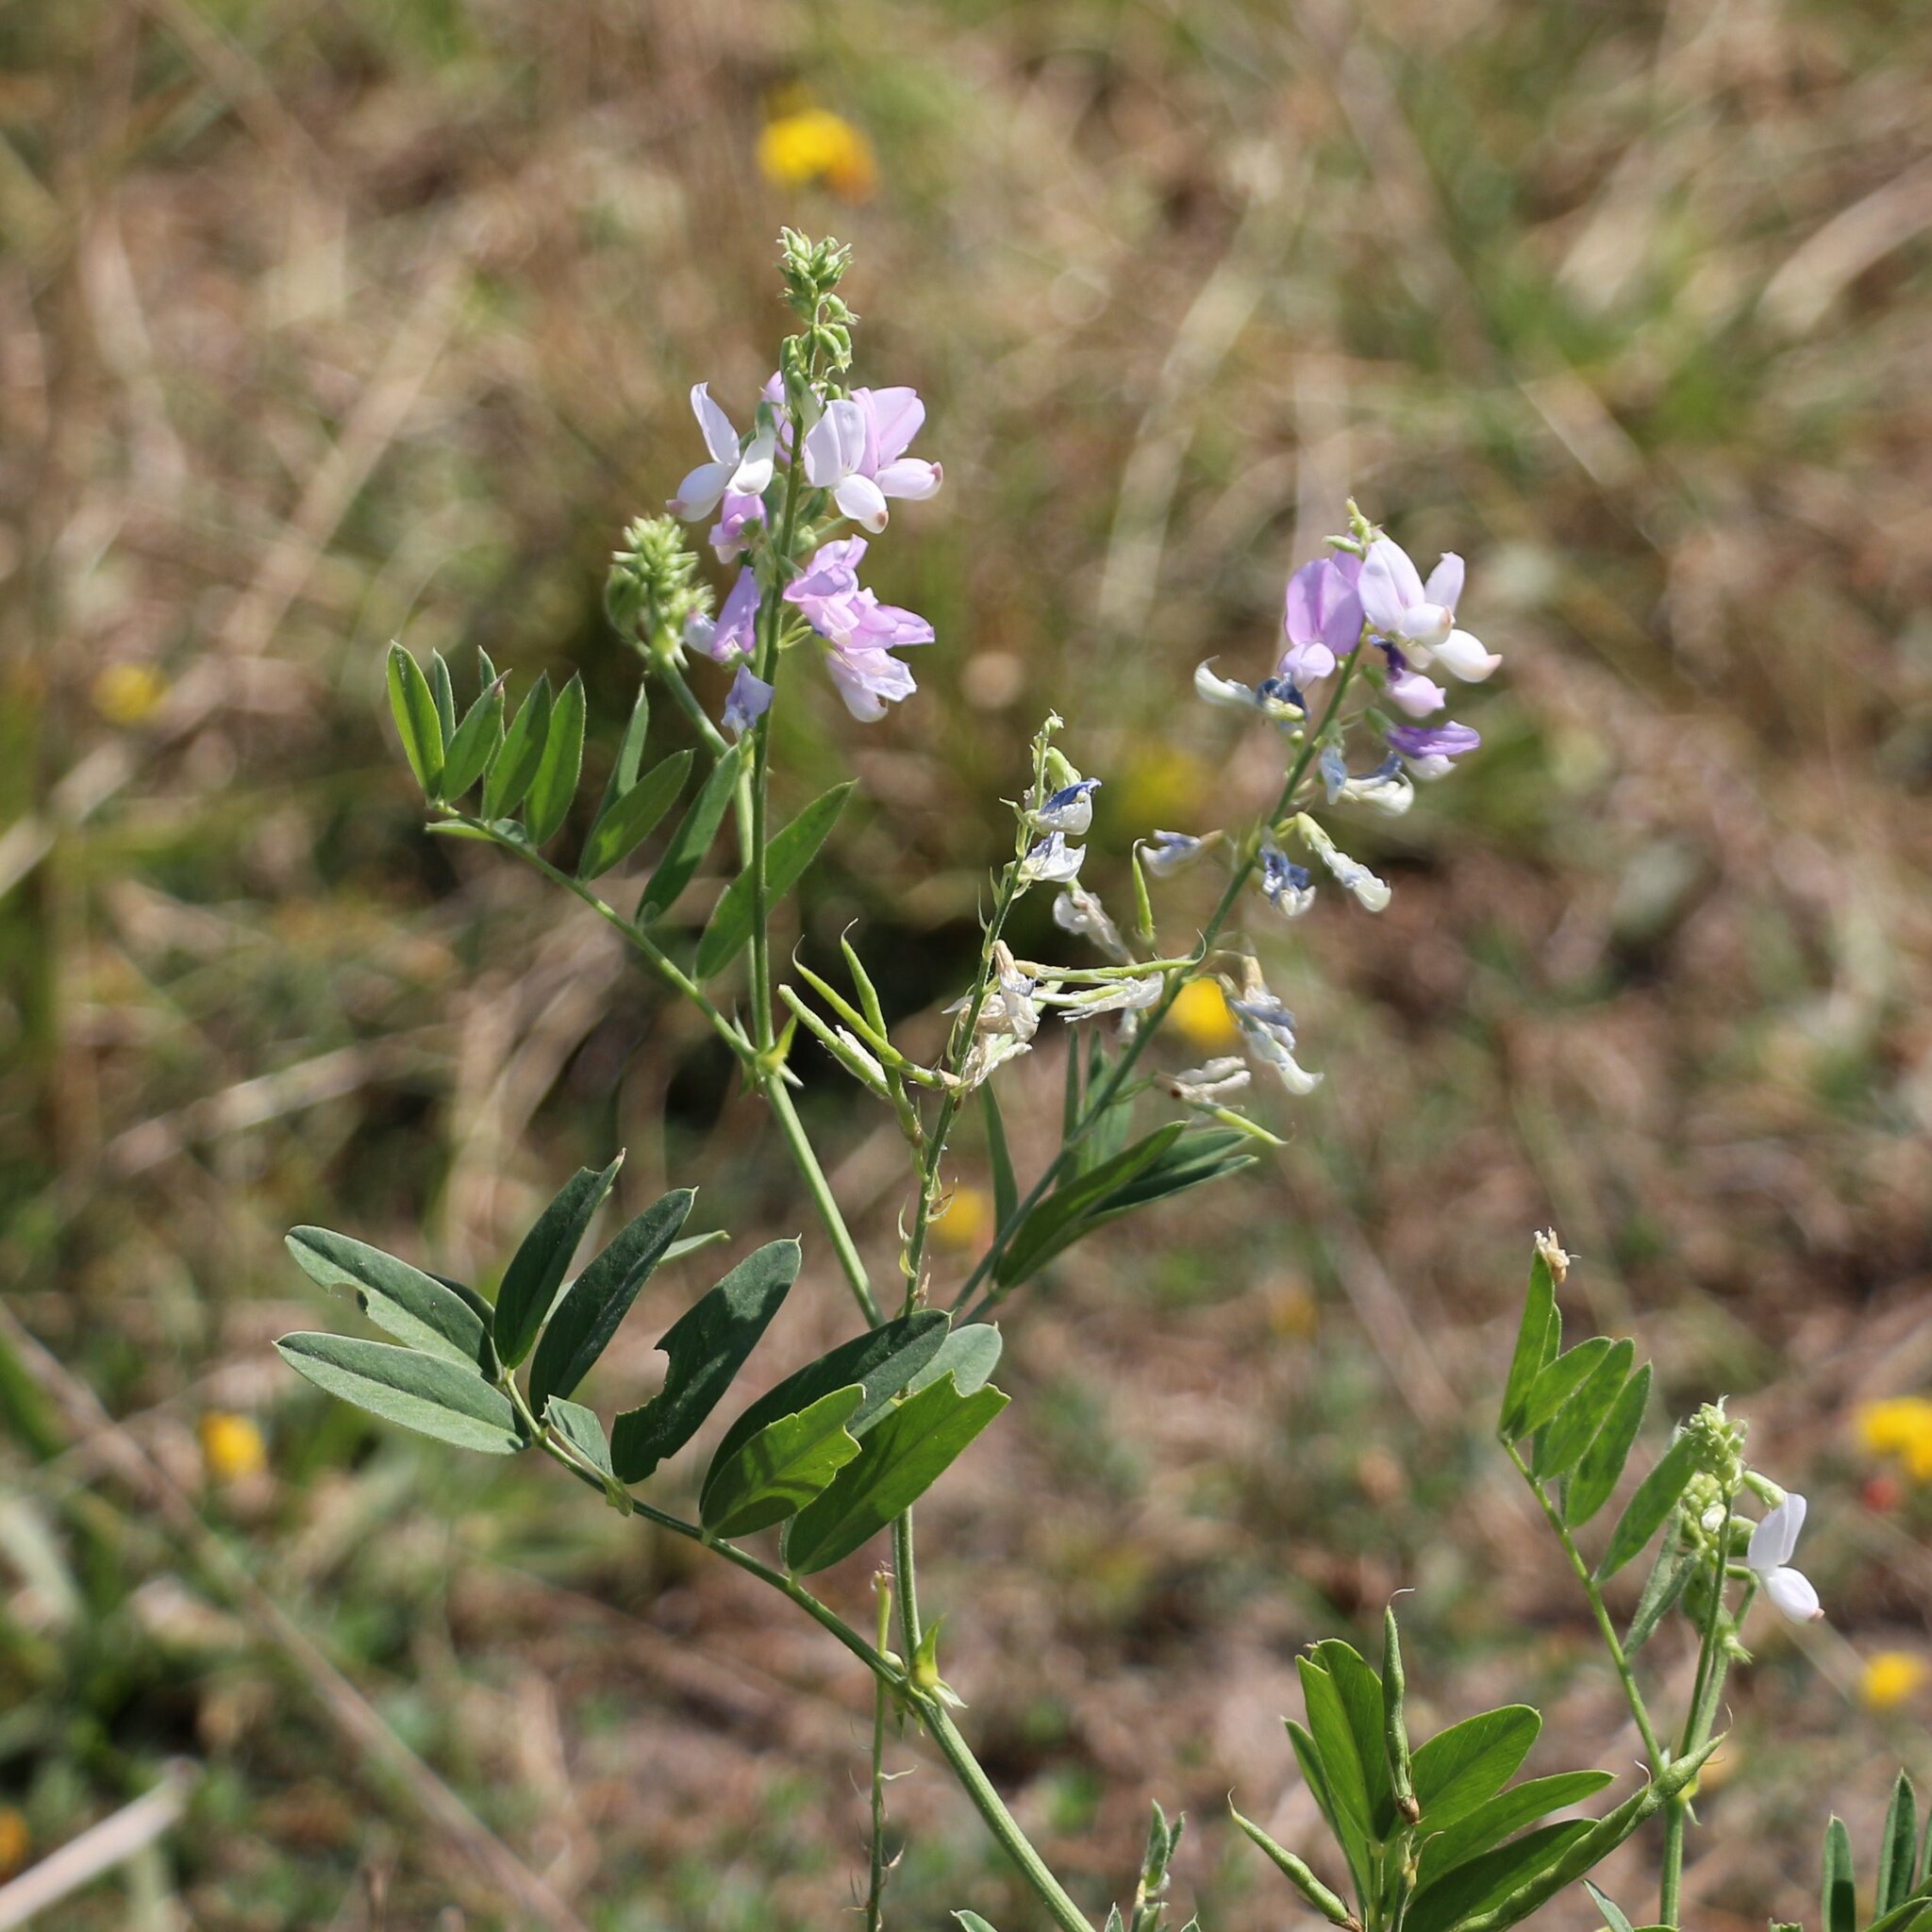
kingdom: Plantae
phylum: Tracheophyta
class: Magnoliopsida
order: Fabales
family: Fabaceae
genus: Galega
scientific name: Galega officinalis
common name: Goat's-rue
